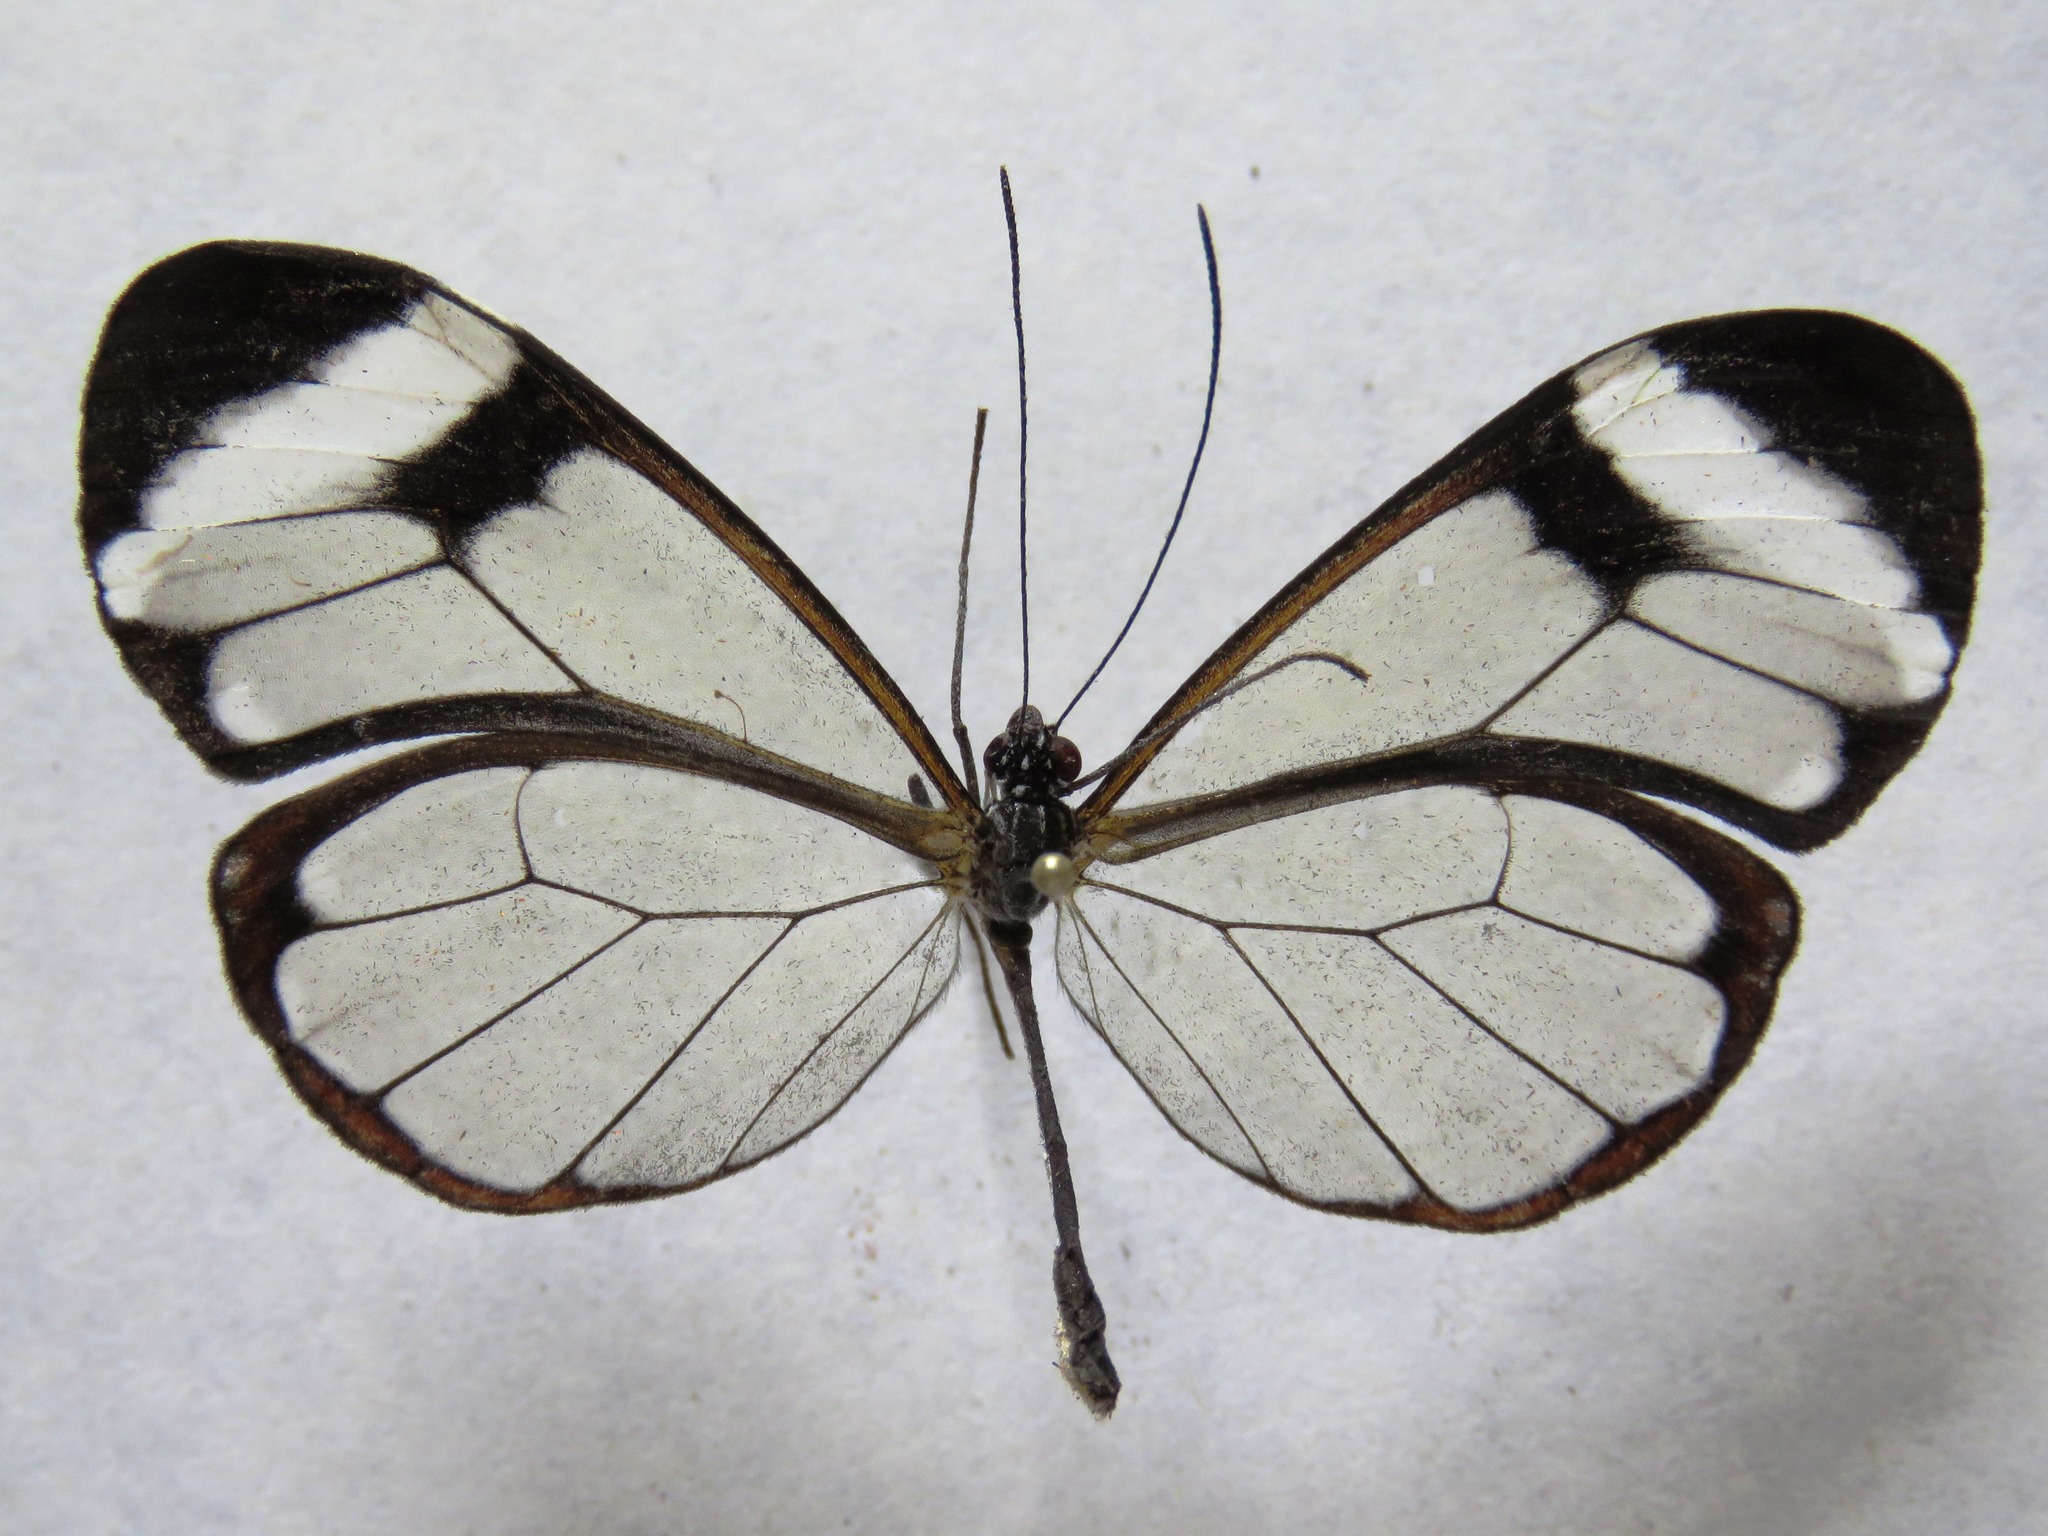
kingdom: Animalia
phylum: Arthropoda
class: Insecta
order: Lepidoptera
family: Nymphalidae
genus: Greta
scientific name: Greta morgane
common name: Thick-tipped greta
